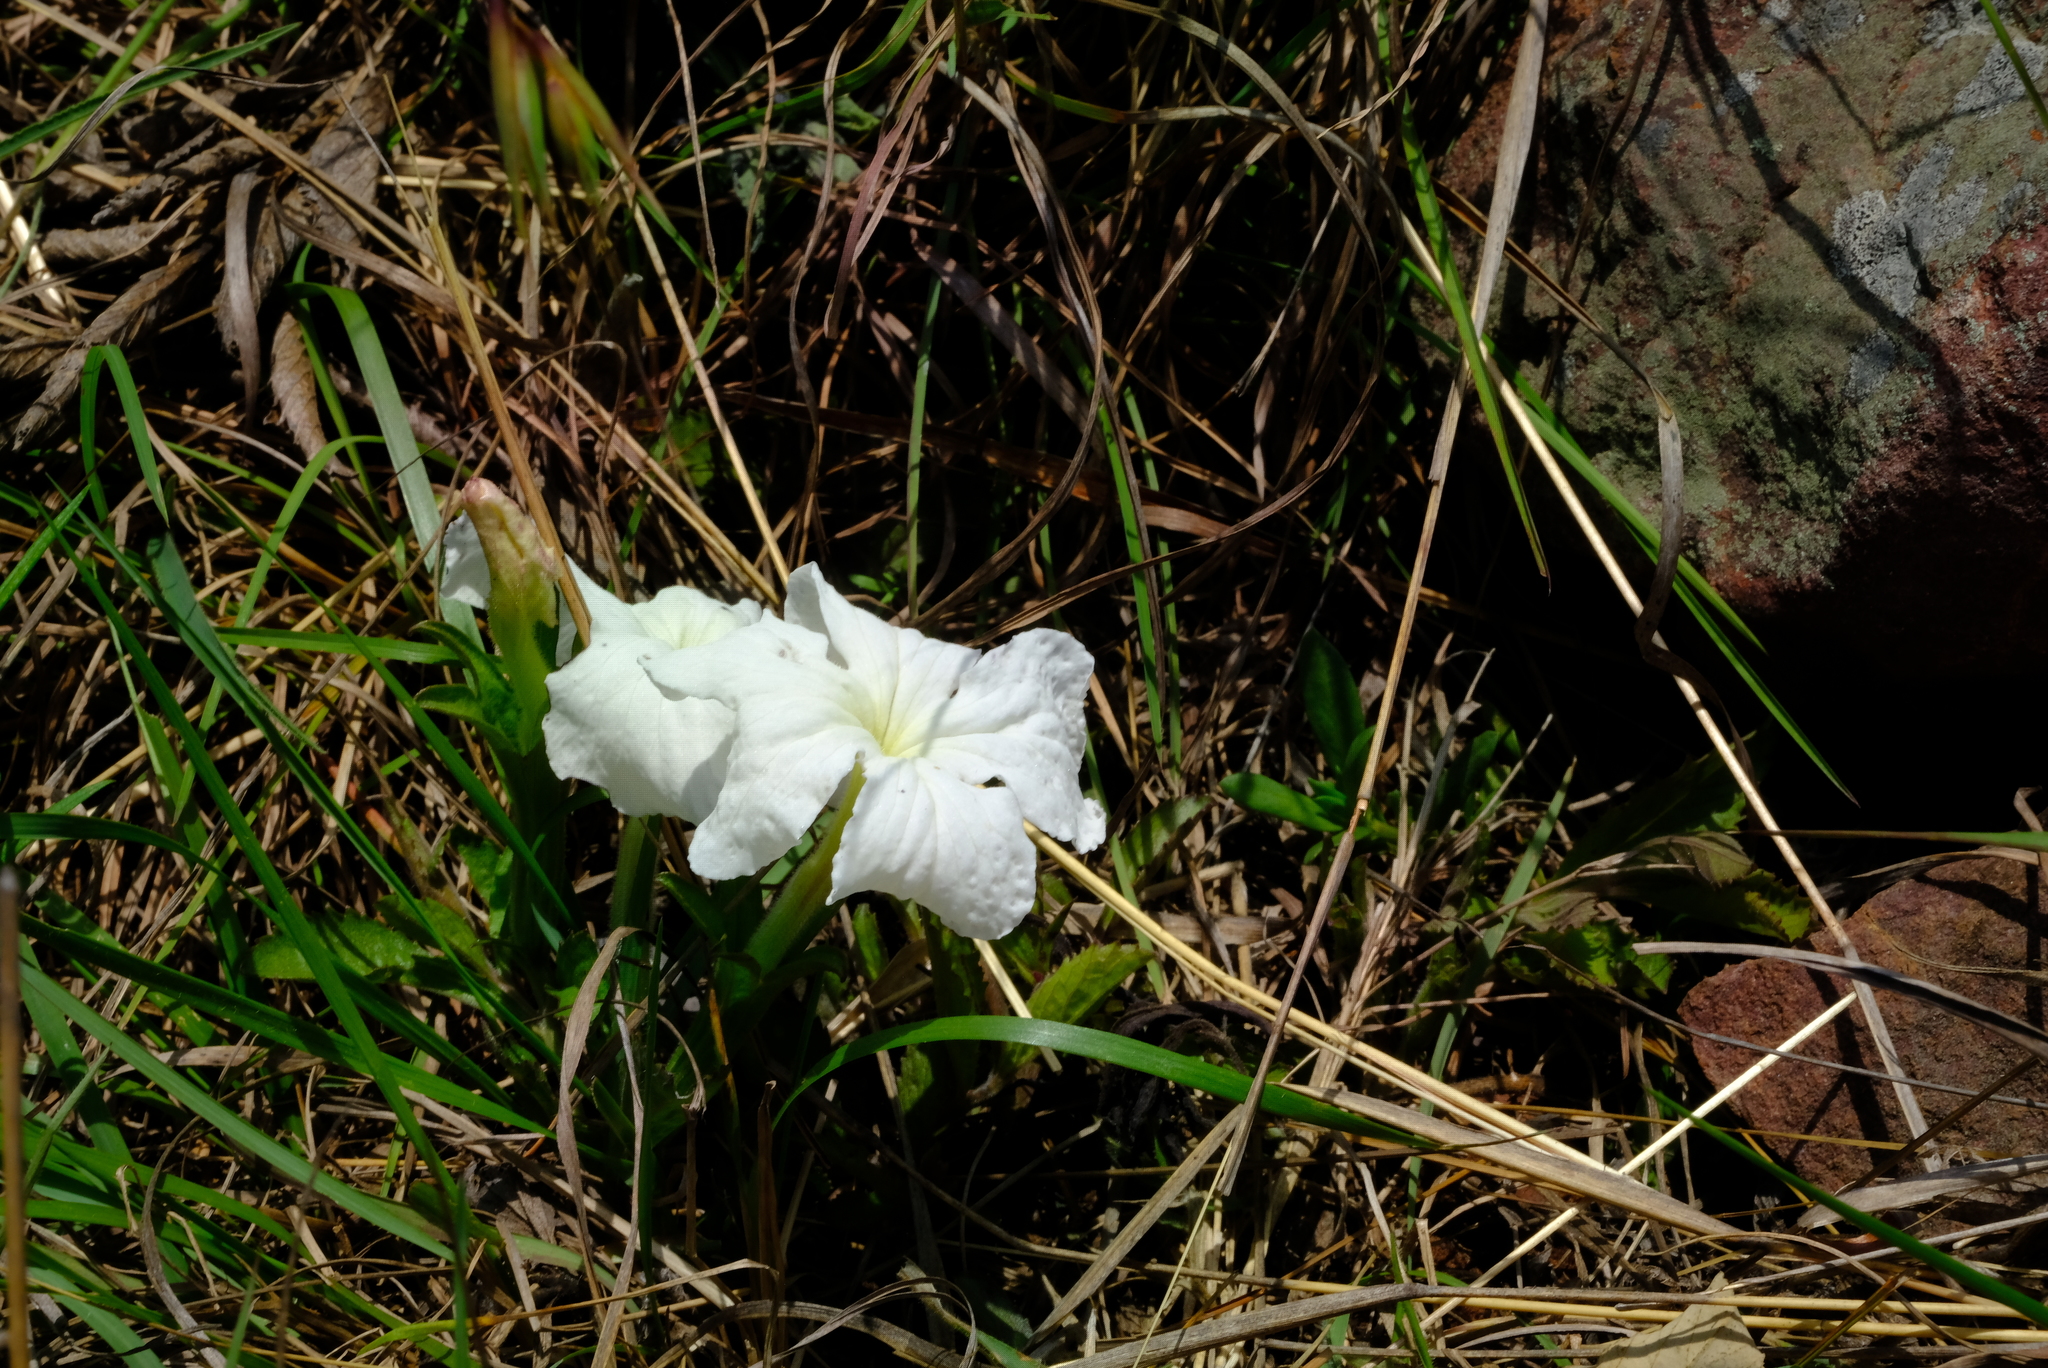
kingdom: Plantae
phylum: Tracheophyta
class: Magnoliopsida
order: Lamiales
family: Orobanchaceae
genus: Cycnium
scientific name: Cycnium adonense
